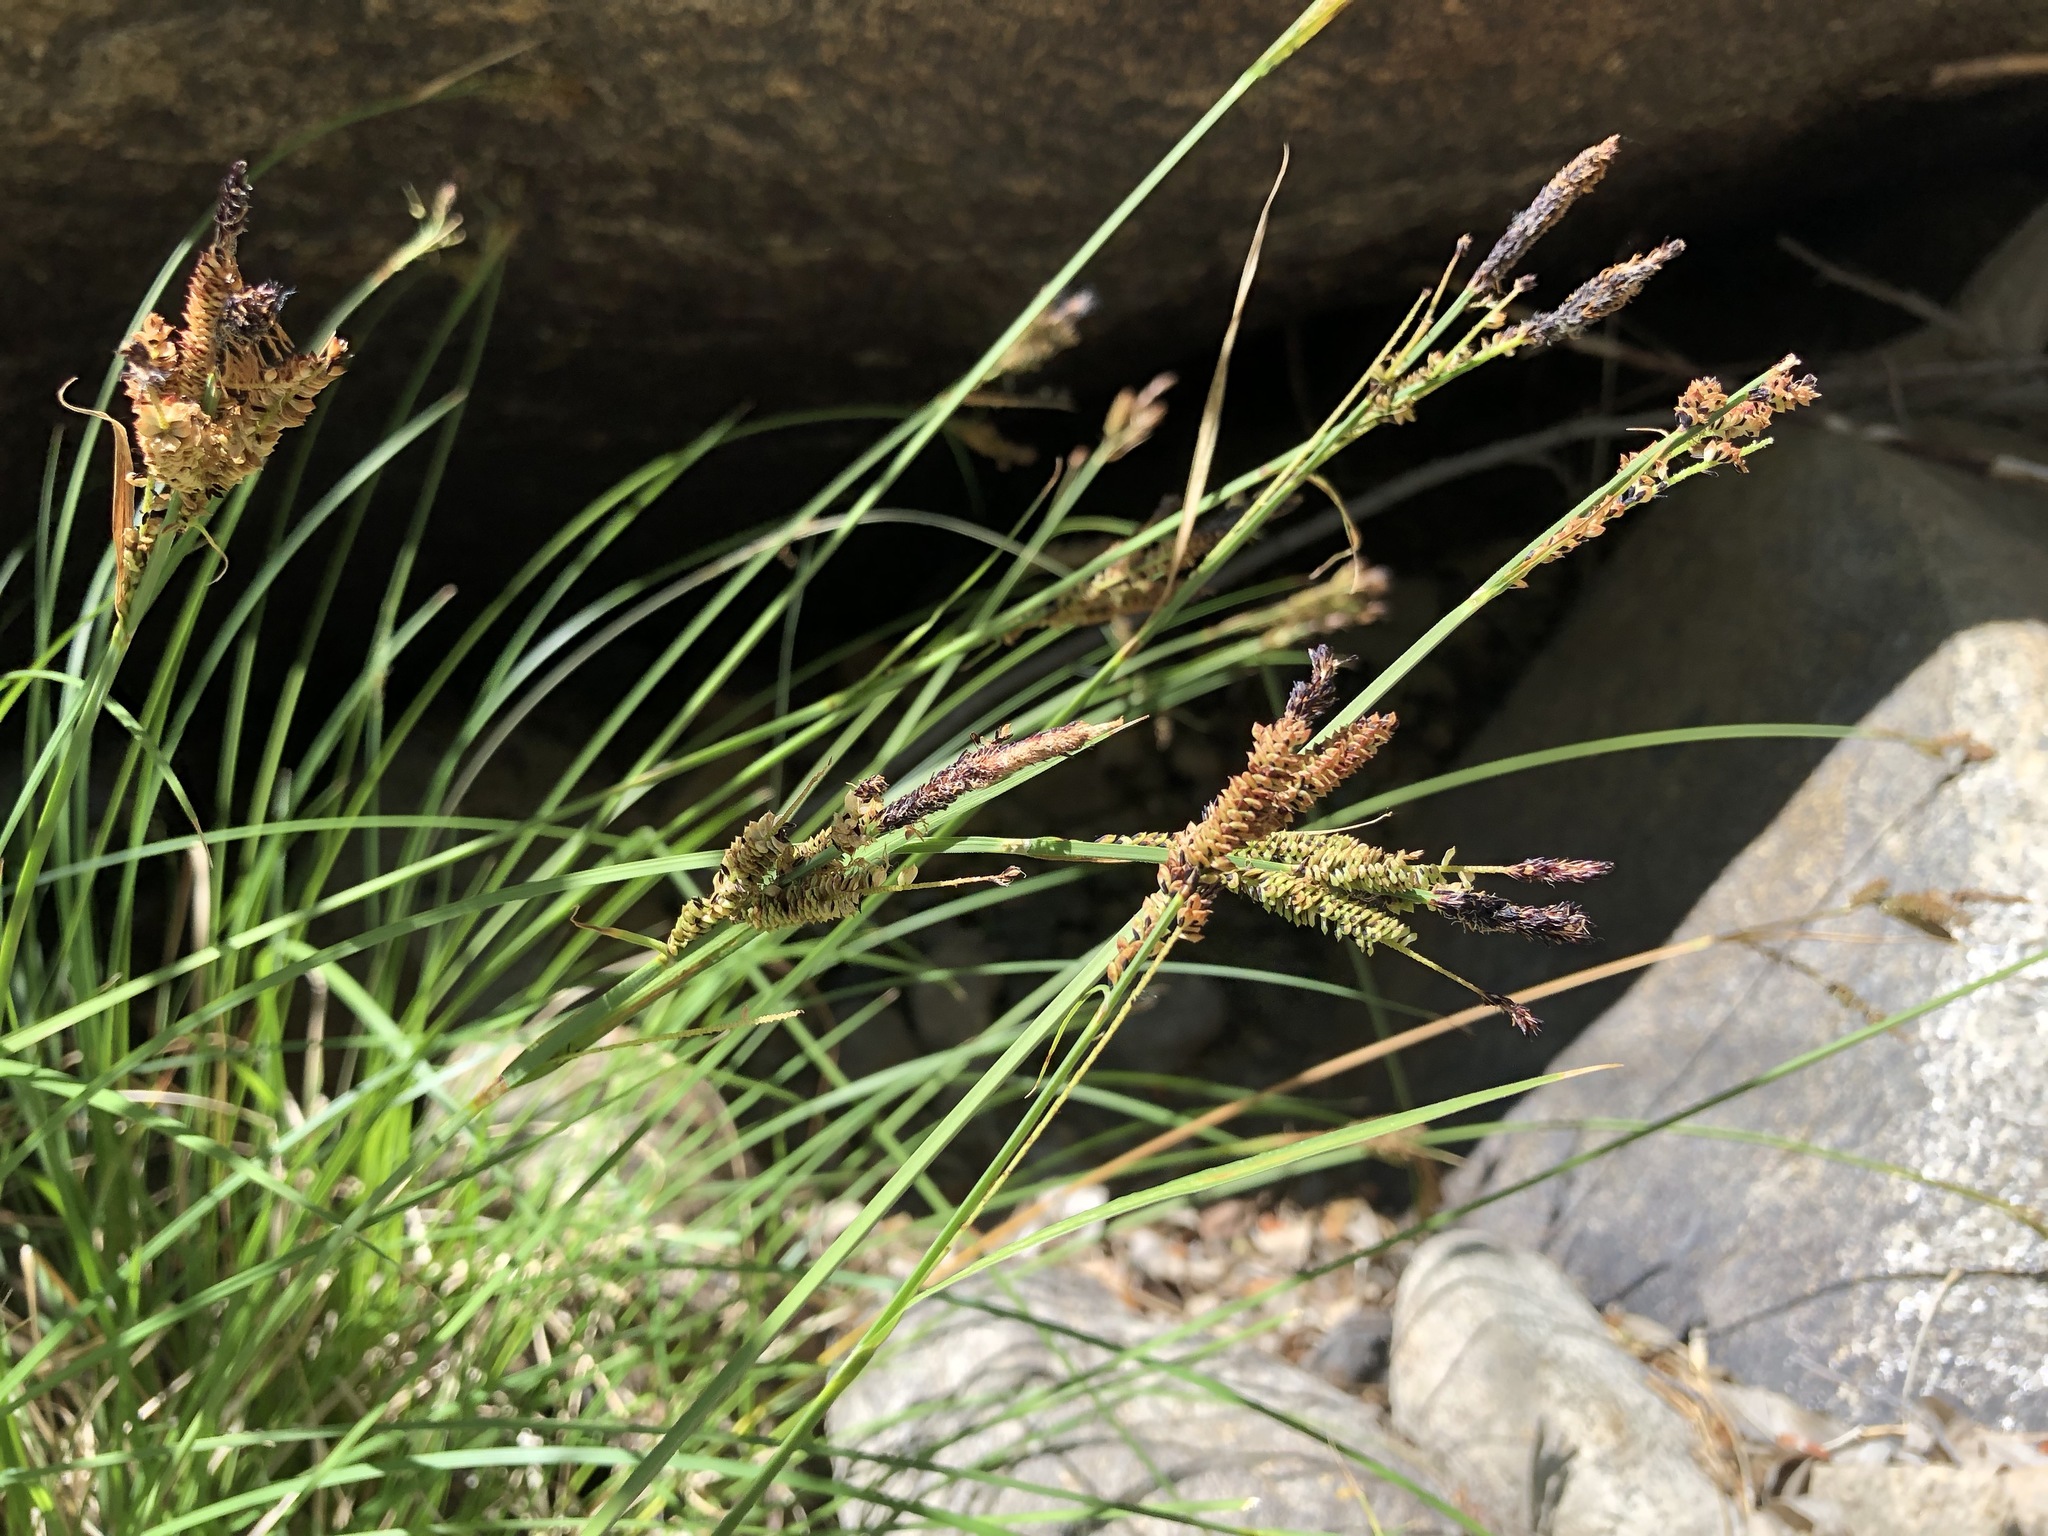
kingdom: Plantae
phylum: Tracheophyta
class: Liliopsida
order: Poales
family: Cyperaceae
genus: Carex
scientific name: Carex nudata
